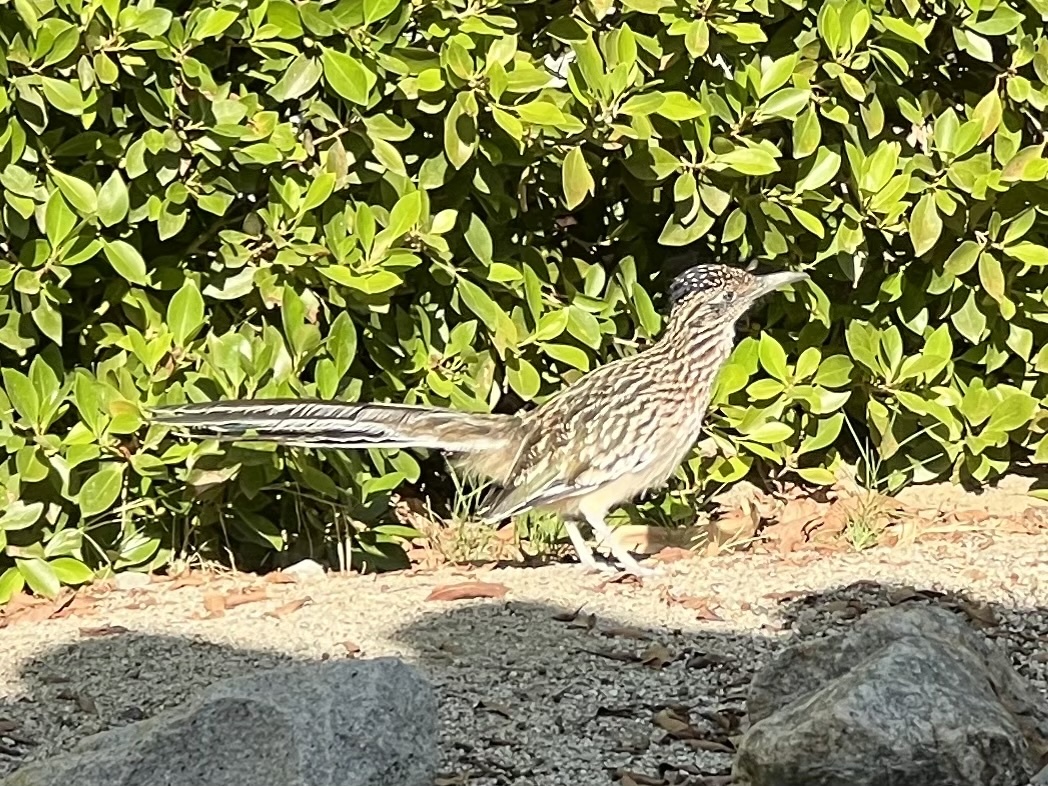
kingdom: Animalia
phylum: Chordata
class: Aves
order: Cuculiformes
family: Cuculidae
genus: Geococcyx
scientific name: Geococcyx californianus
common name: Greater roadrunner
